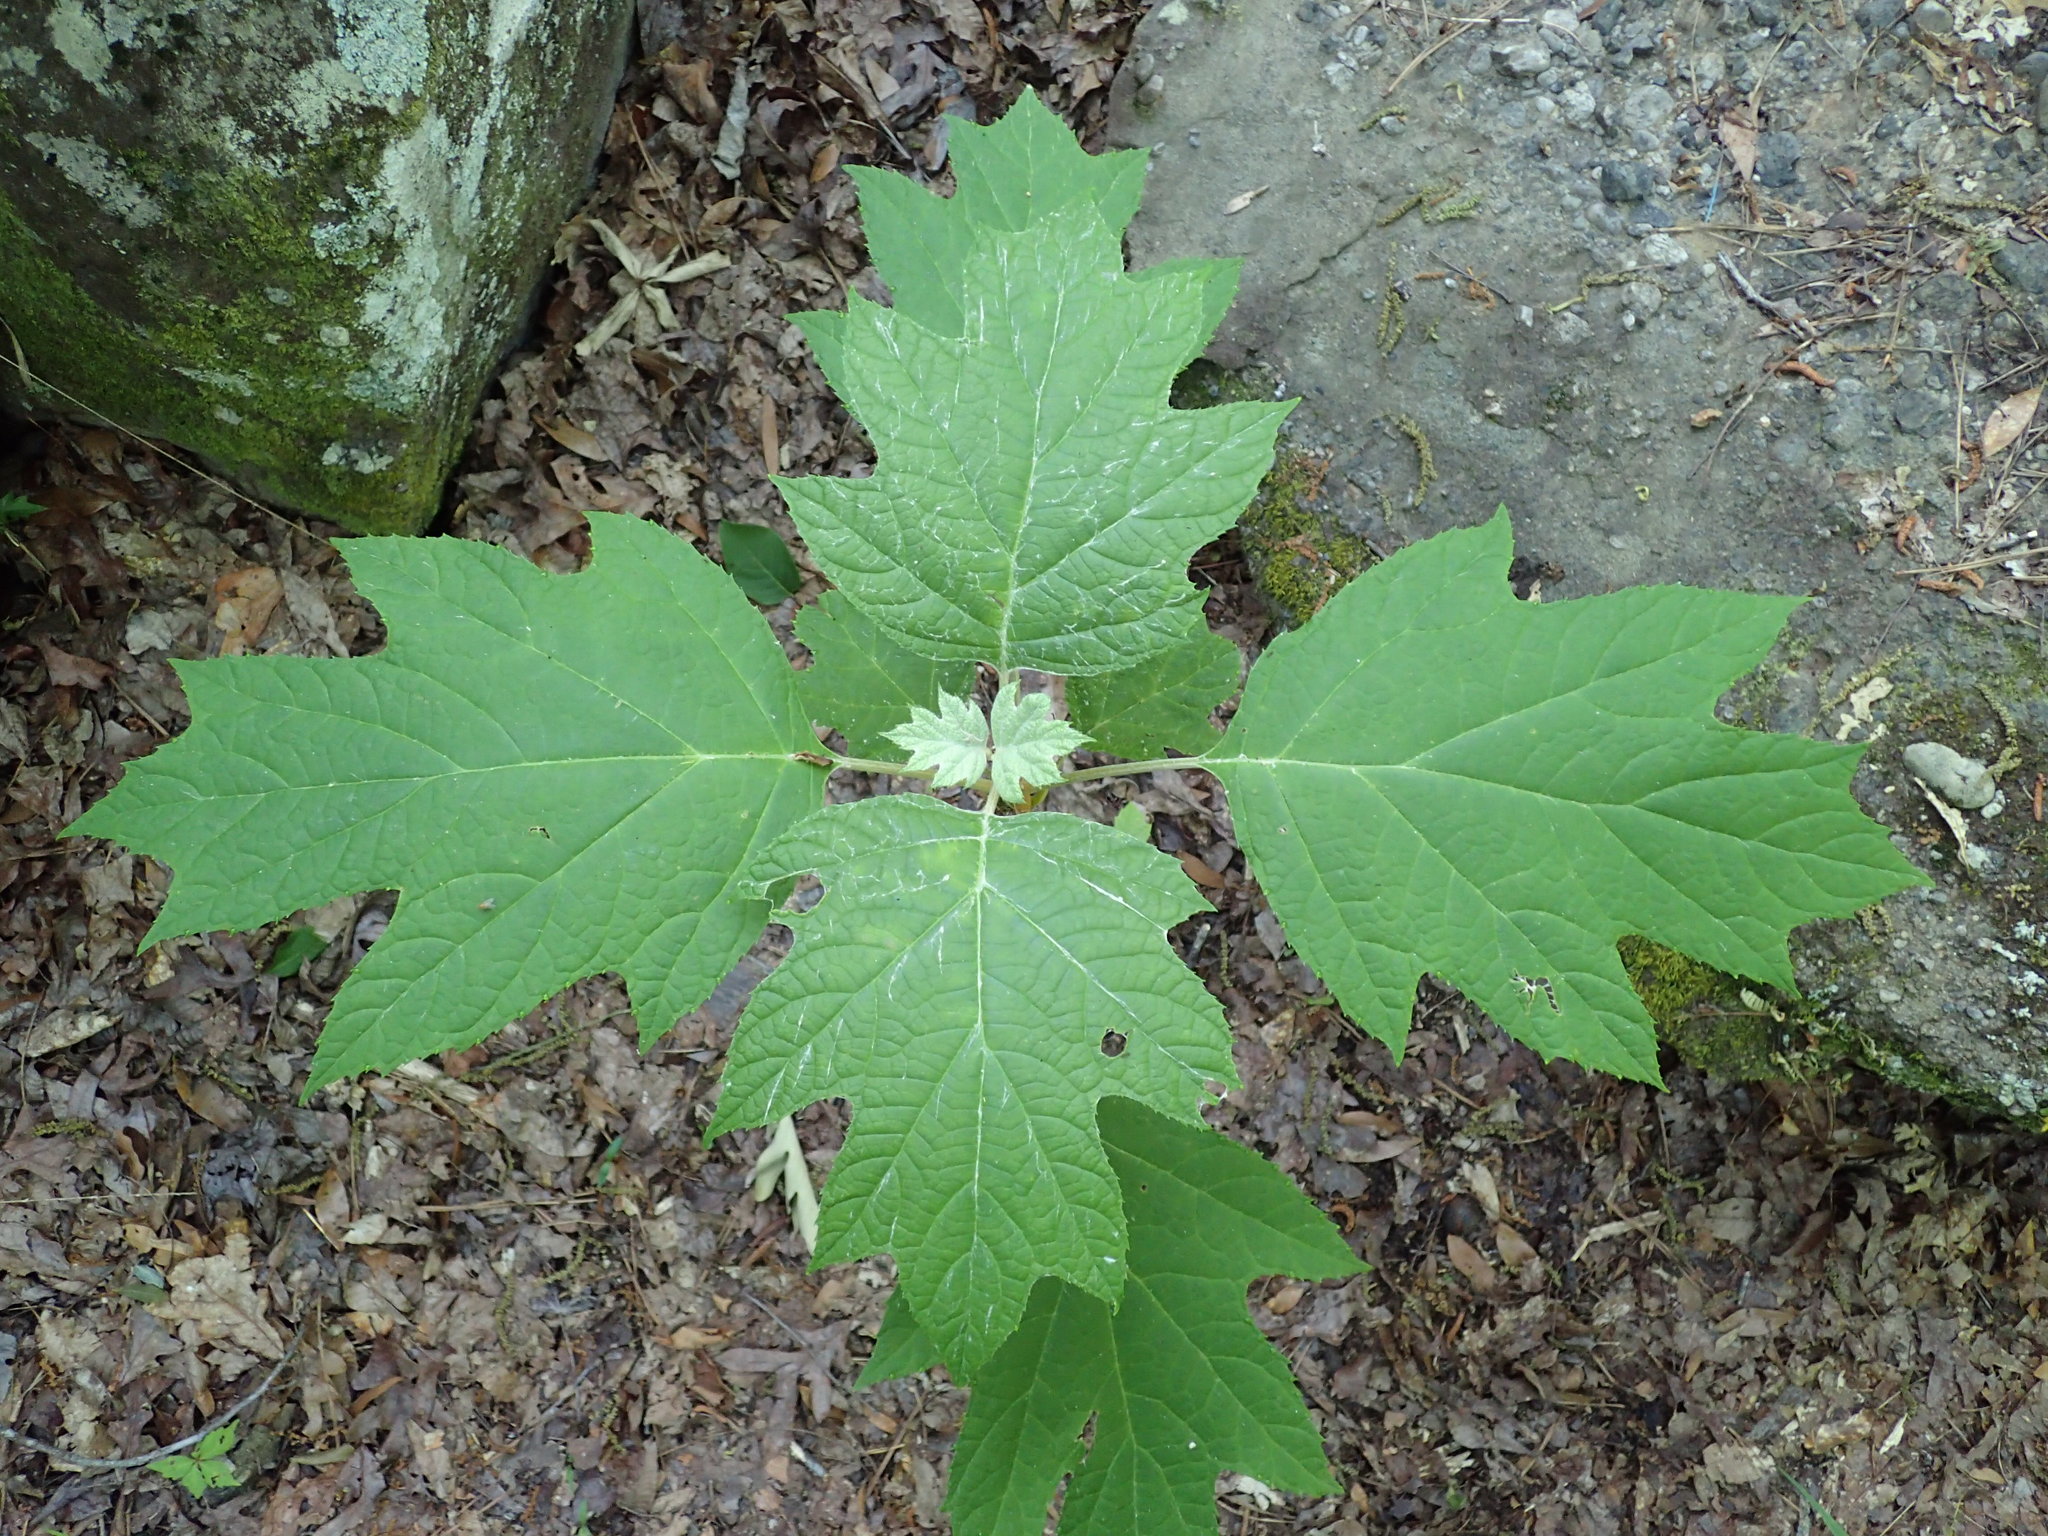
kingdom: Plantae
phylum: Tracheophyta
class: Magnoliopsida
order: Cornales
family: Hydrangeaceae
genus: Hydrangea
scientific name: Hydrangea quercifolia
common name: Oak-leaf hydrangea
